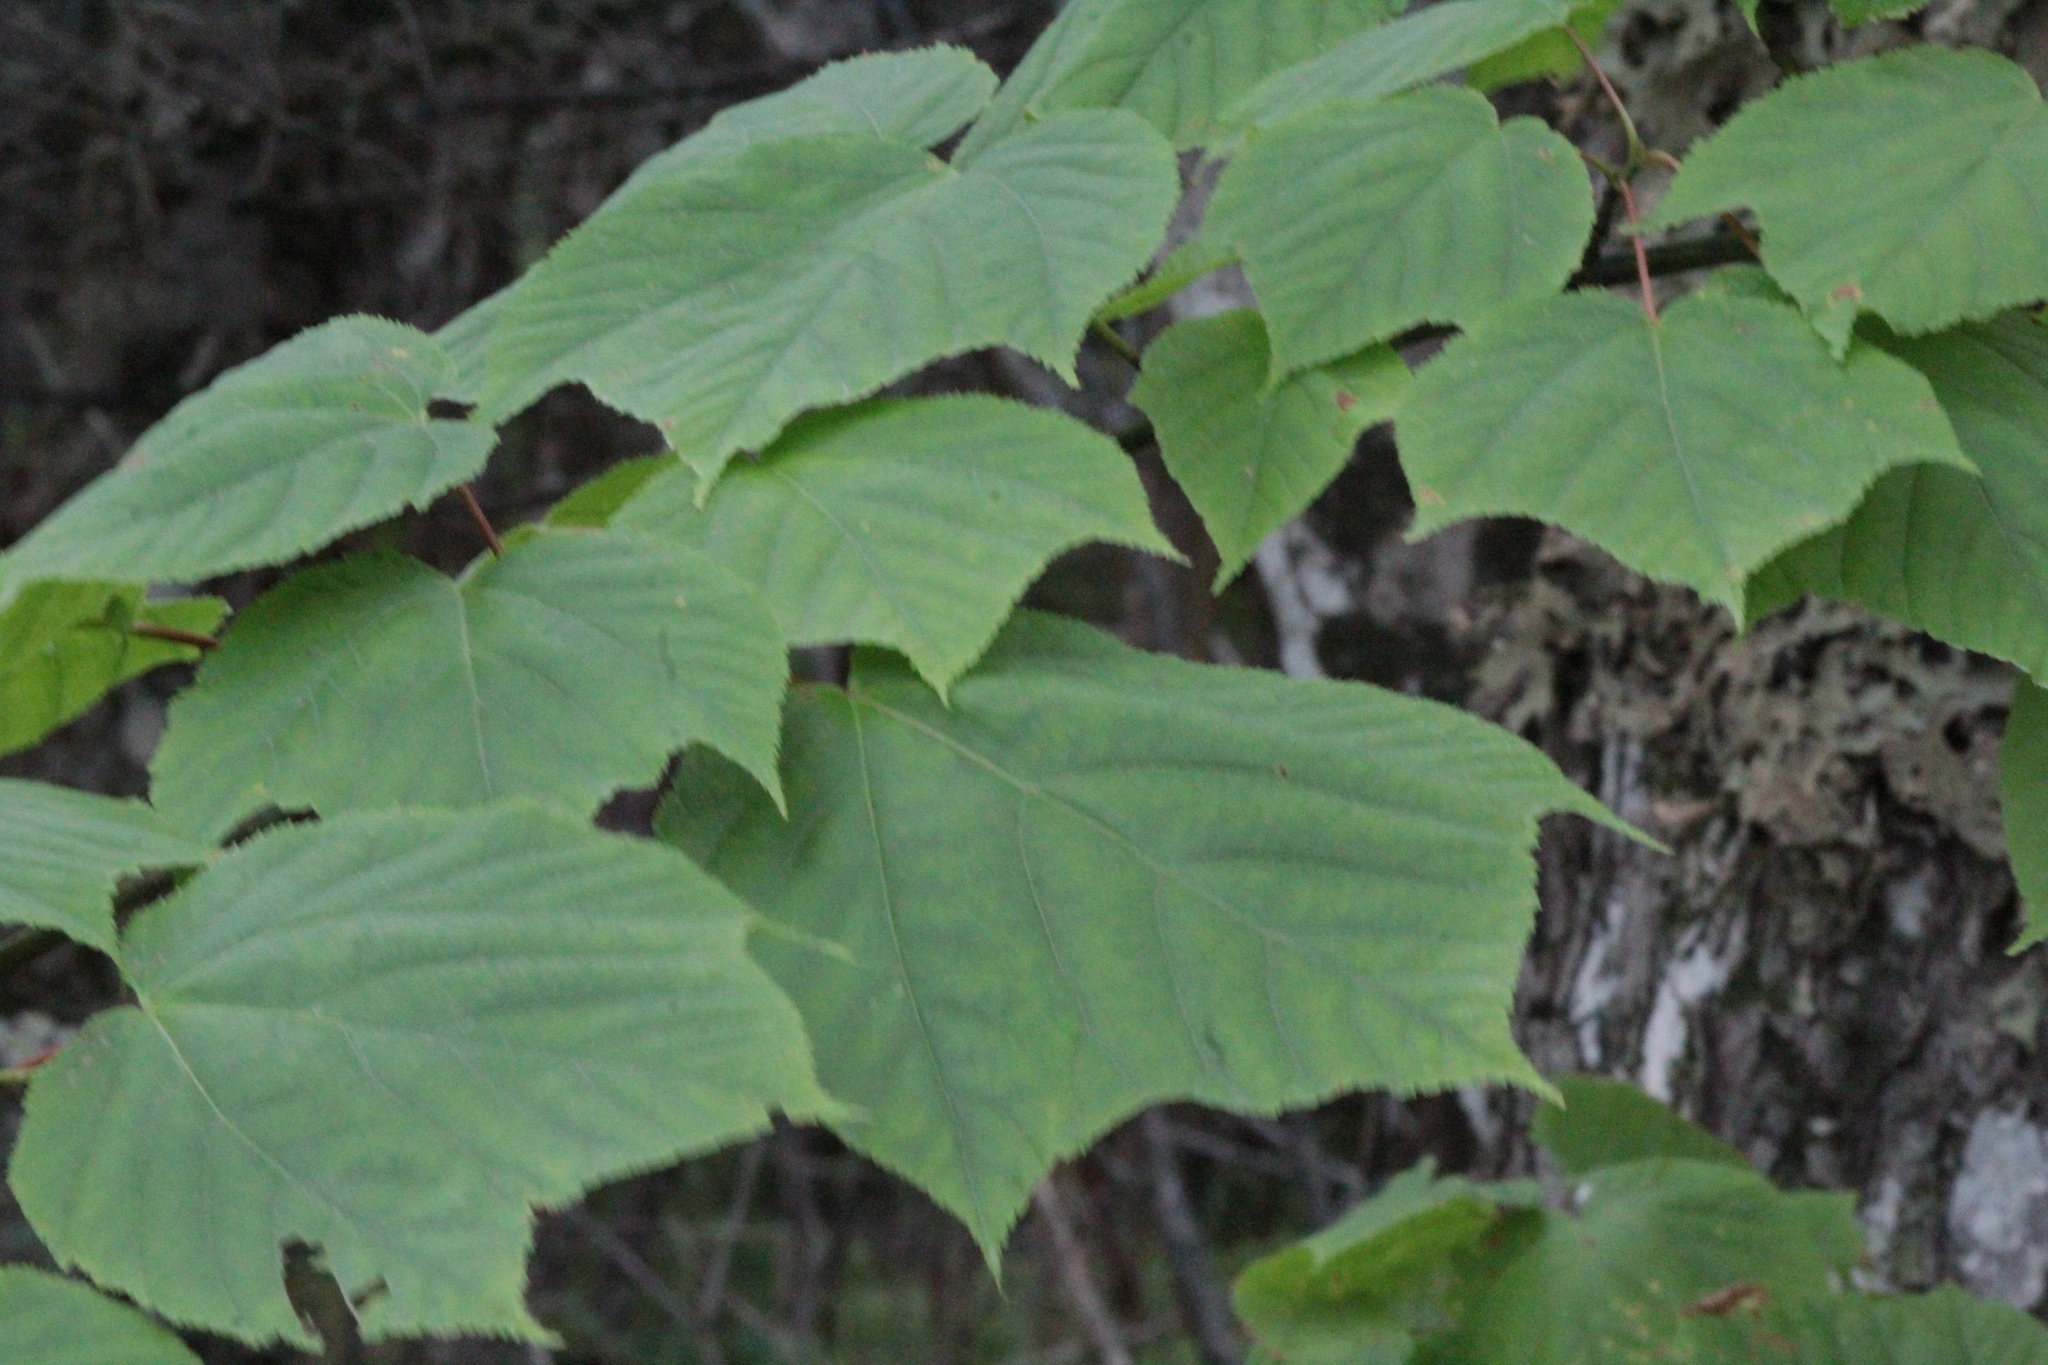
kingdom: Plantae
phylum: Tracheophyta
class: Magnoliopsida
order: Sapindales
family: Sapindaceae
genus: Acer
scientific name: Acer pensylvanicum
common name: Moosewood
